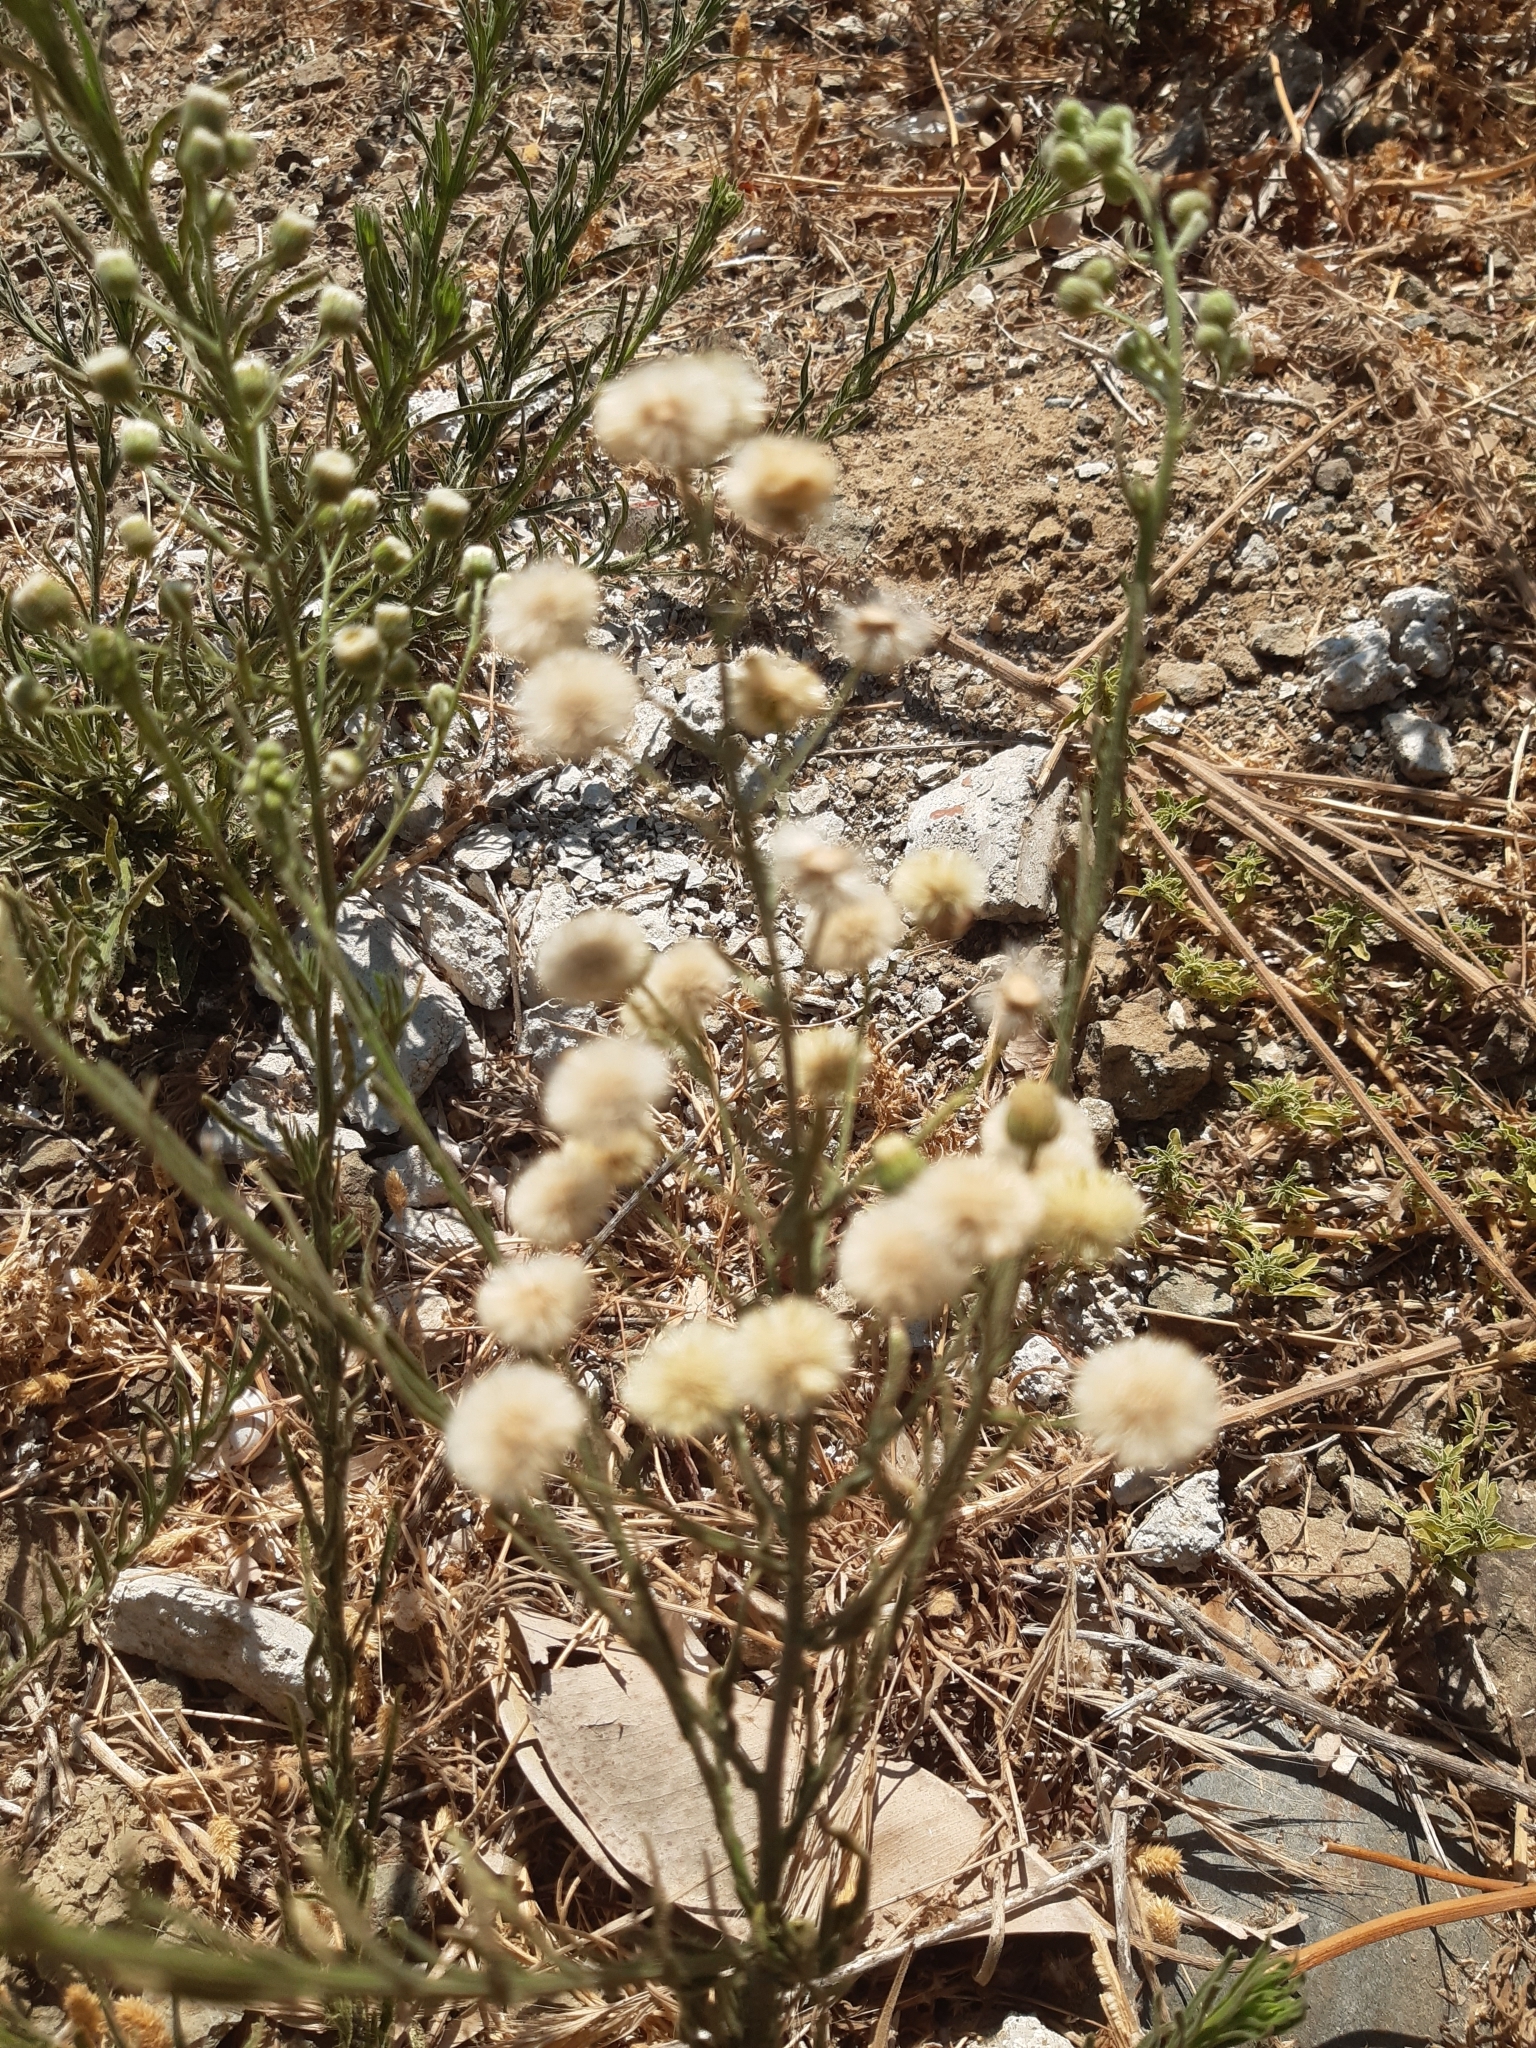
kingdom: Plantae
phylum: Tracheophyta
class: Magnoliopsida
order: Asterales
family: Asteraceae
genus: Erigeron
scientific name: Erigeron bonariensis
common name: Argentine fleabane
